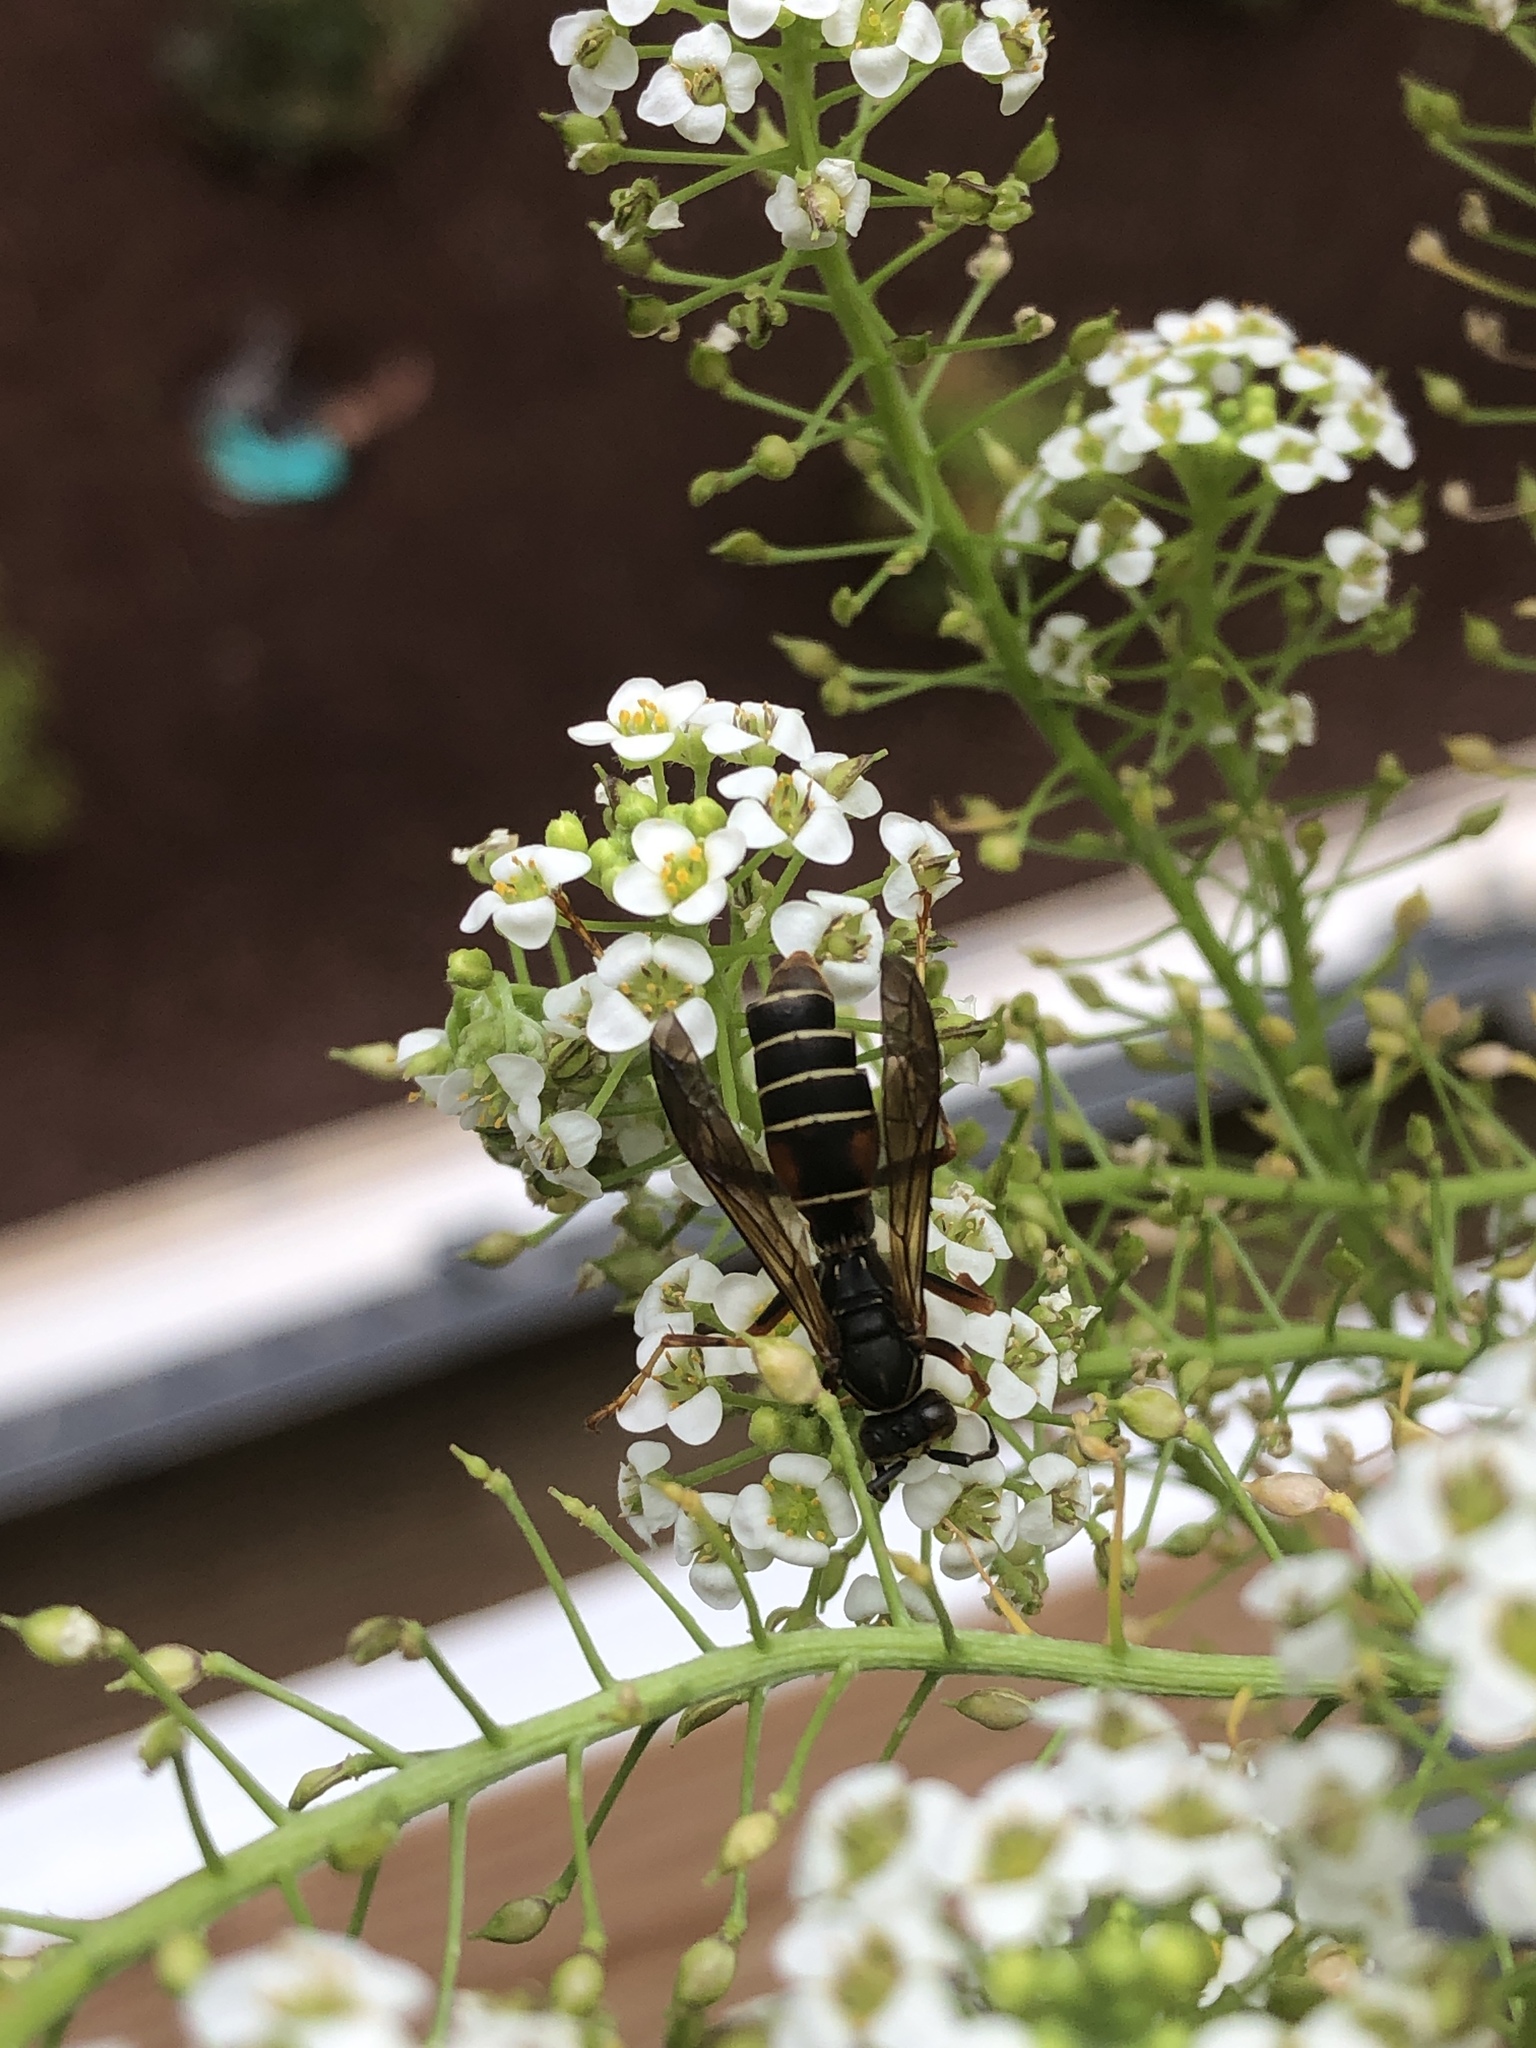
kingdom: Animalia
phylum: Arthropoda
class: Insecta
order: Hymenoptera
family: Eumenidae
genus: Polistes
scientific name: Polistes fuscatus
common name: Dark paper wasp
